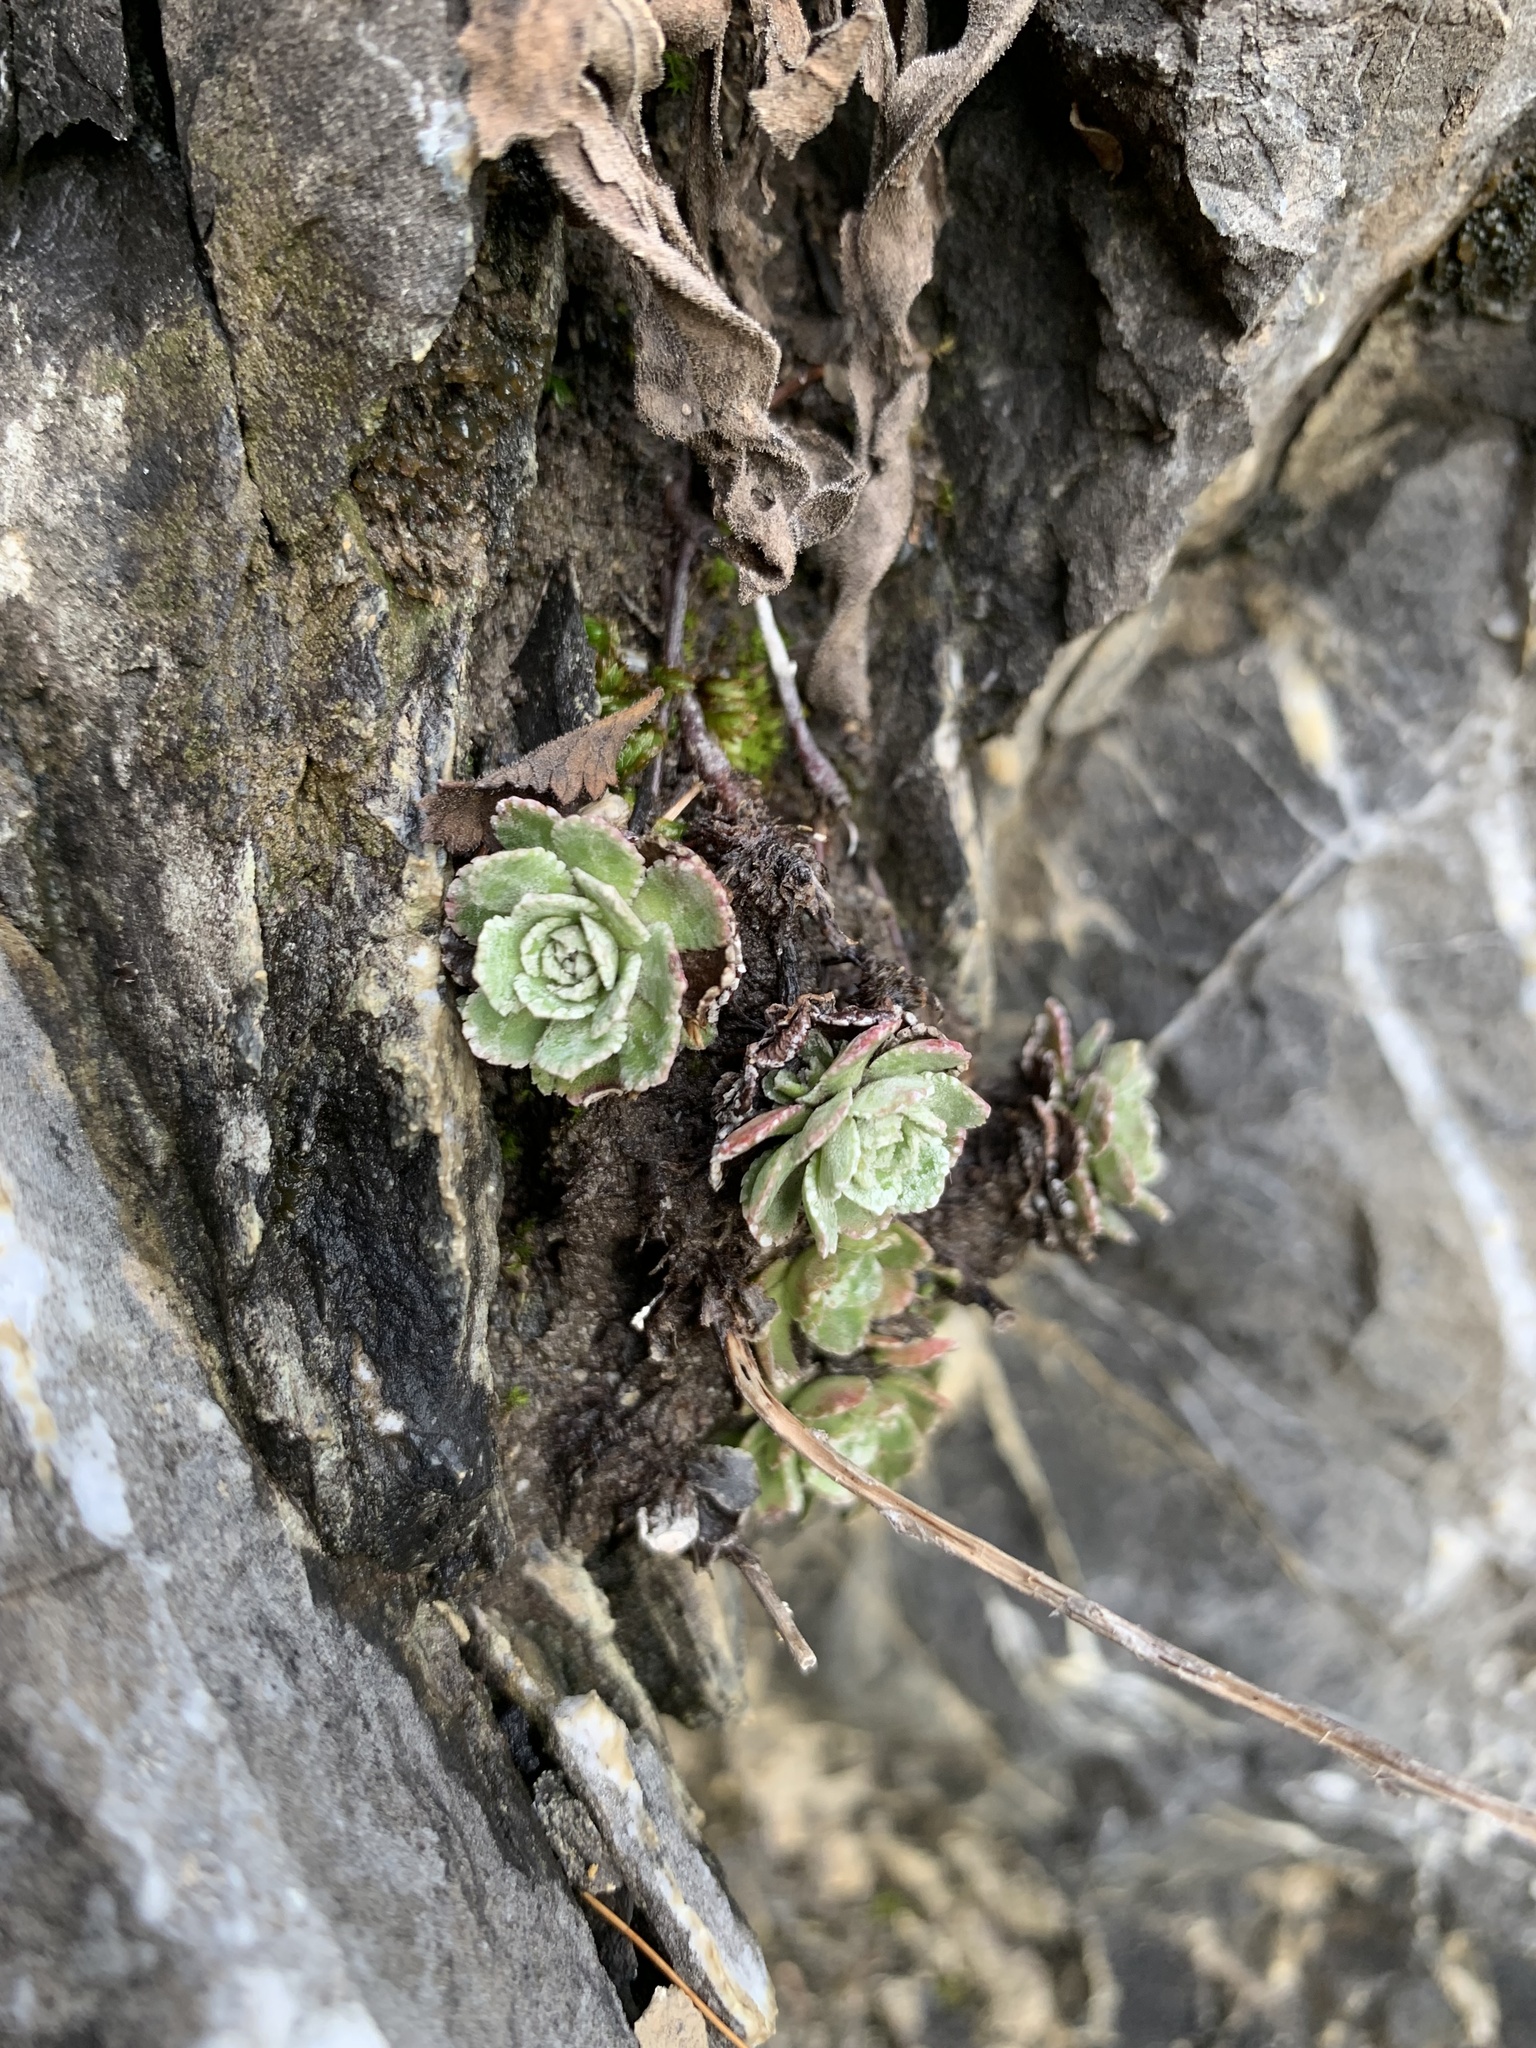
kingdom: Plantae
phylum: Tracheophyta
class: Magnoliopsida
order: Saxifragales
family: Saxifragaceae
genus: Saxifraga
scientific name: Saxifraga paniculata
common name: Livelong saxifrage
